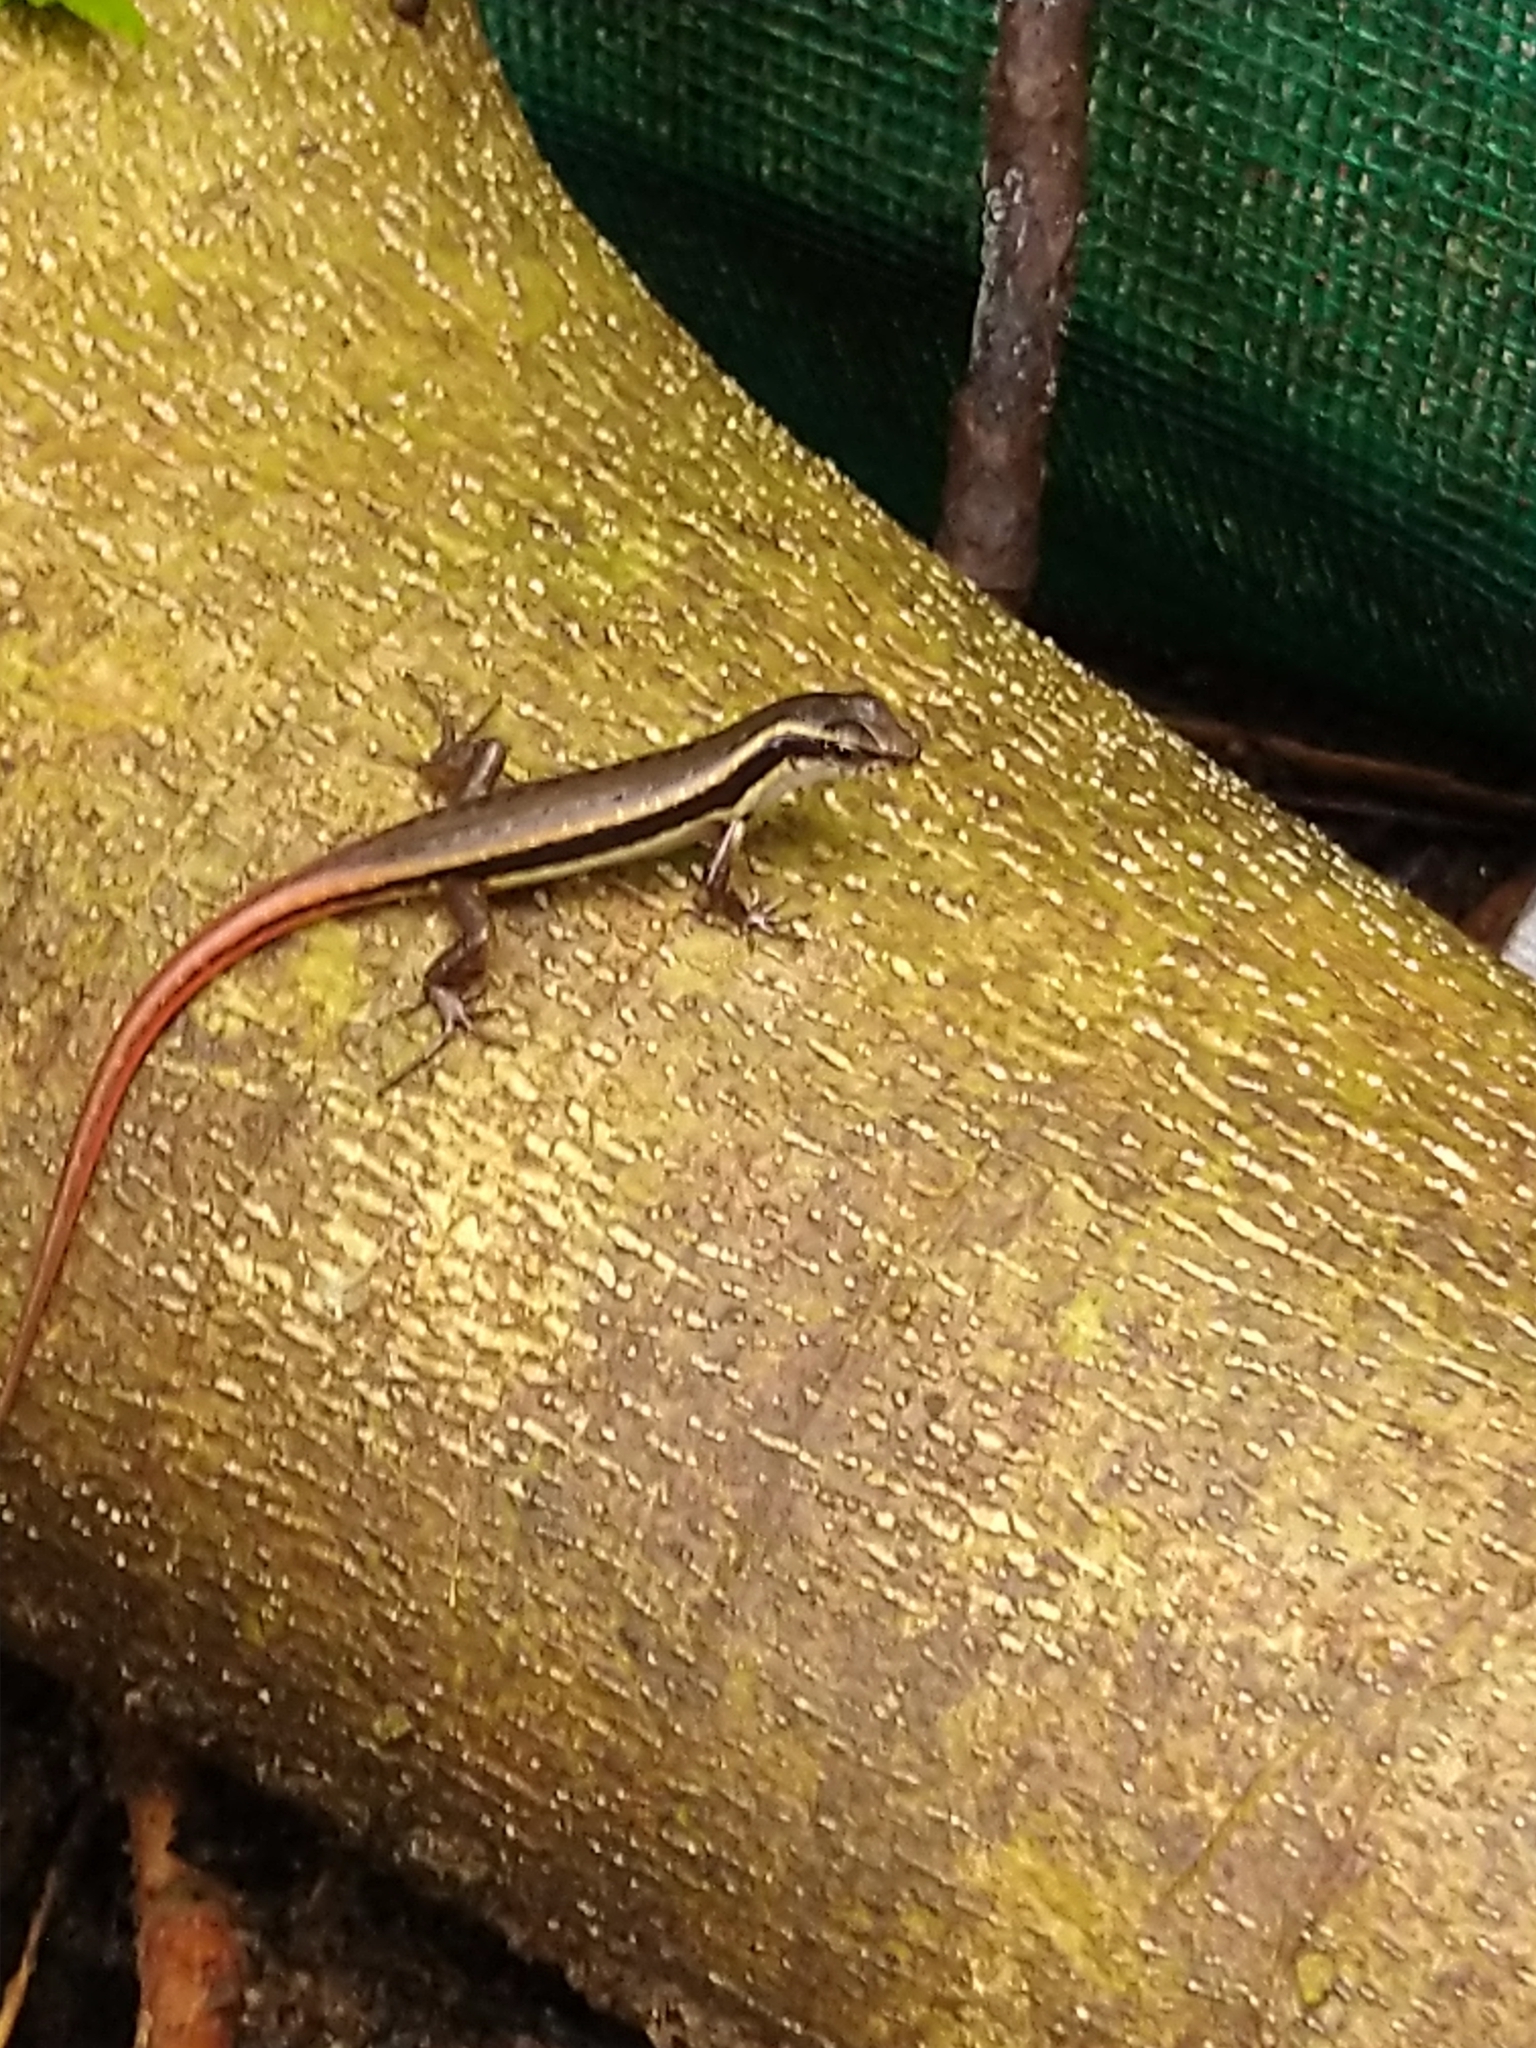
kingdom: Animalia
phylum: Chordata
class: Squamata
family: Scincidae
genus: Sphenomorphus
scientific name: Sphenomorphus dussumieri
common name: Dussumier's forest skink
